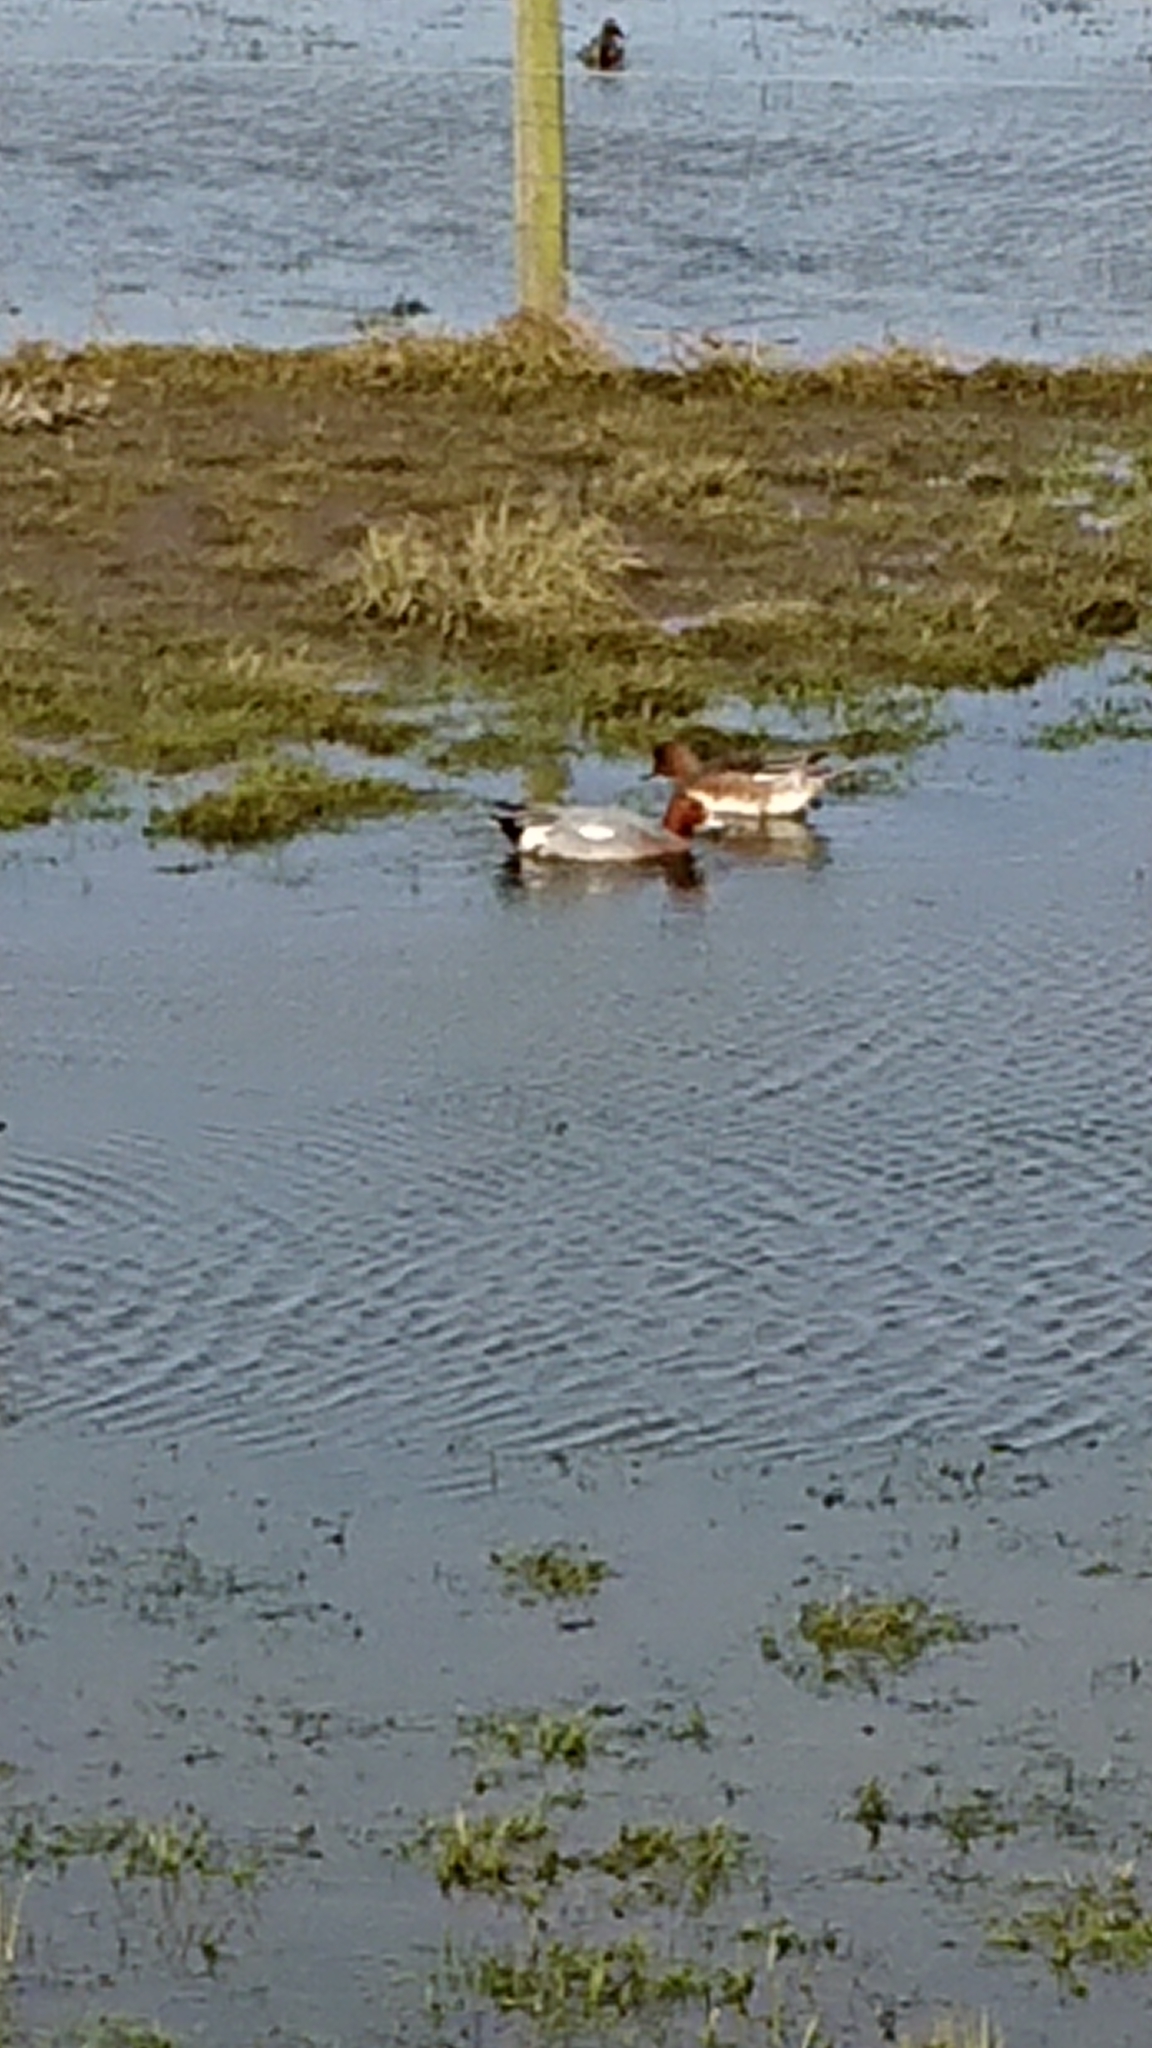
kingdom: Animalia
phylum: Chordata
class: Aves
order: Anseriformes
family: Anatidae
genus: Mareca
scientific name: Mareca penelope
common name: Eurasian wigeon
